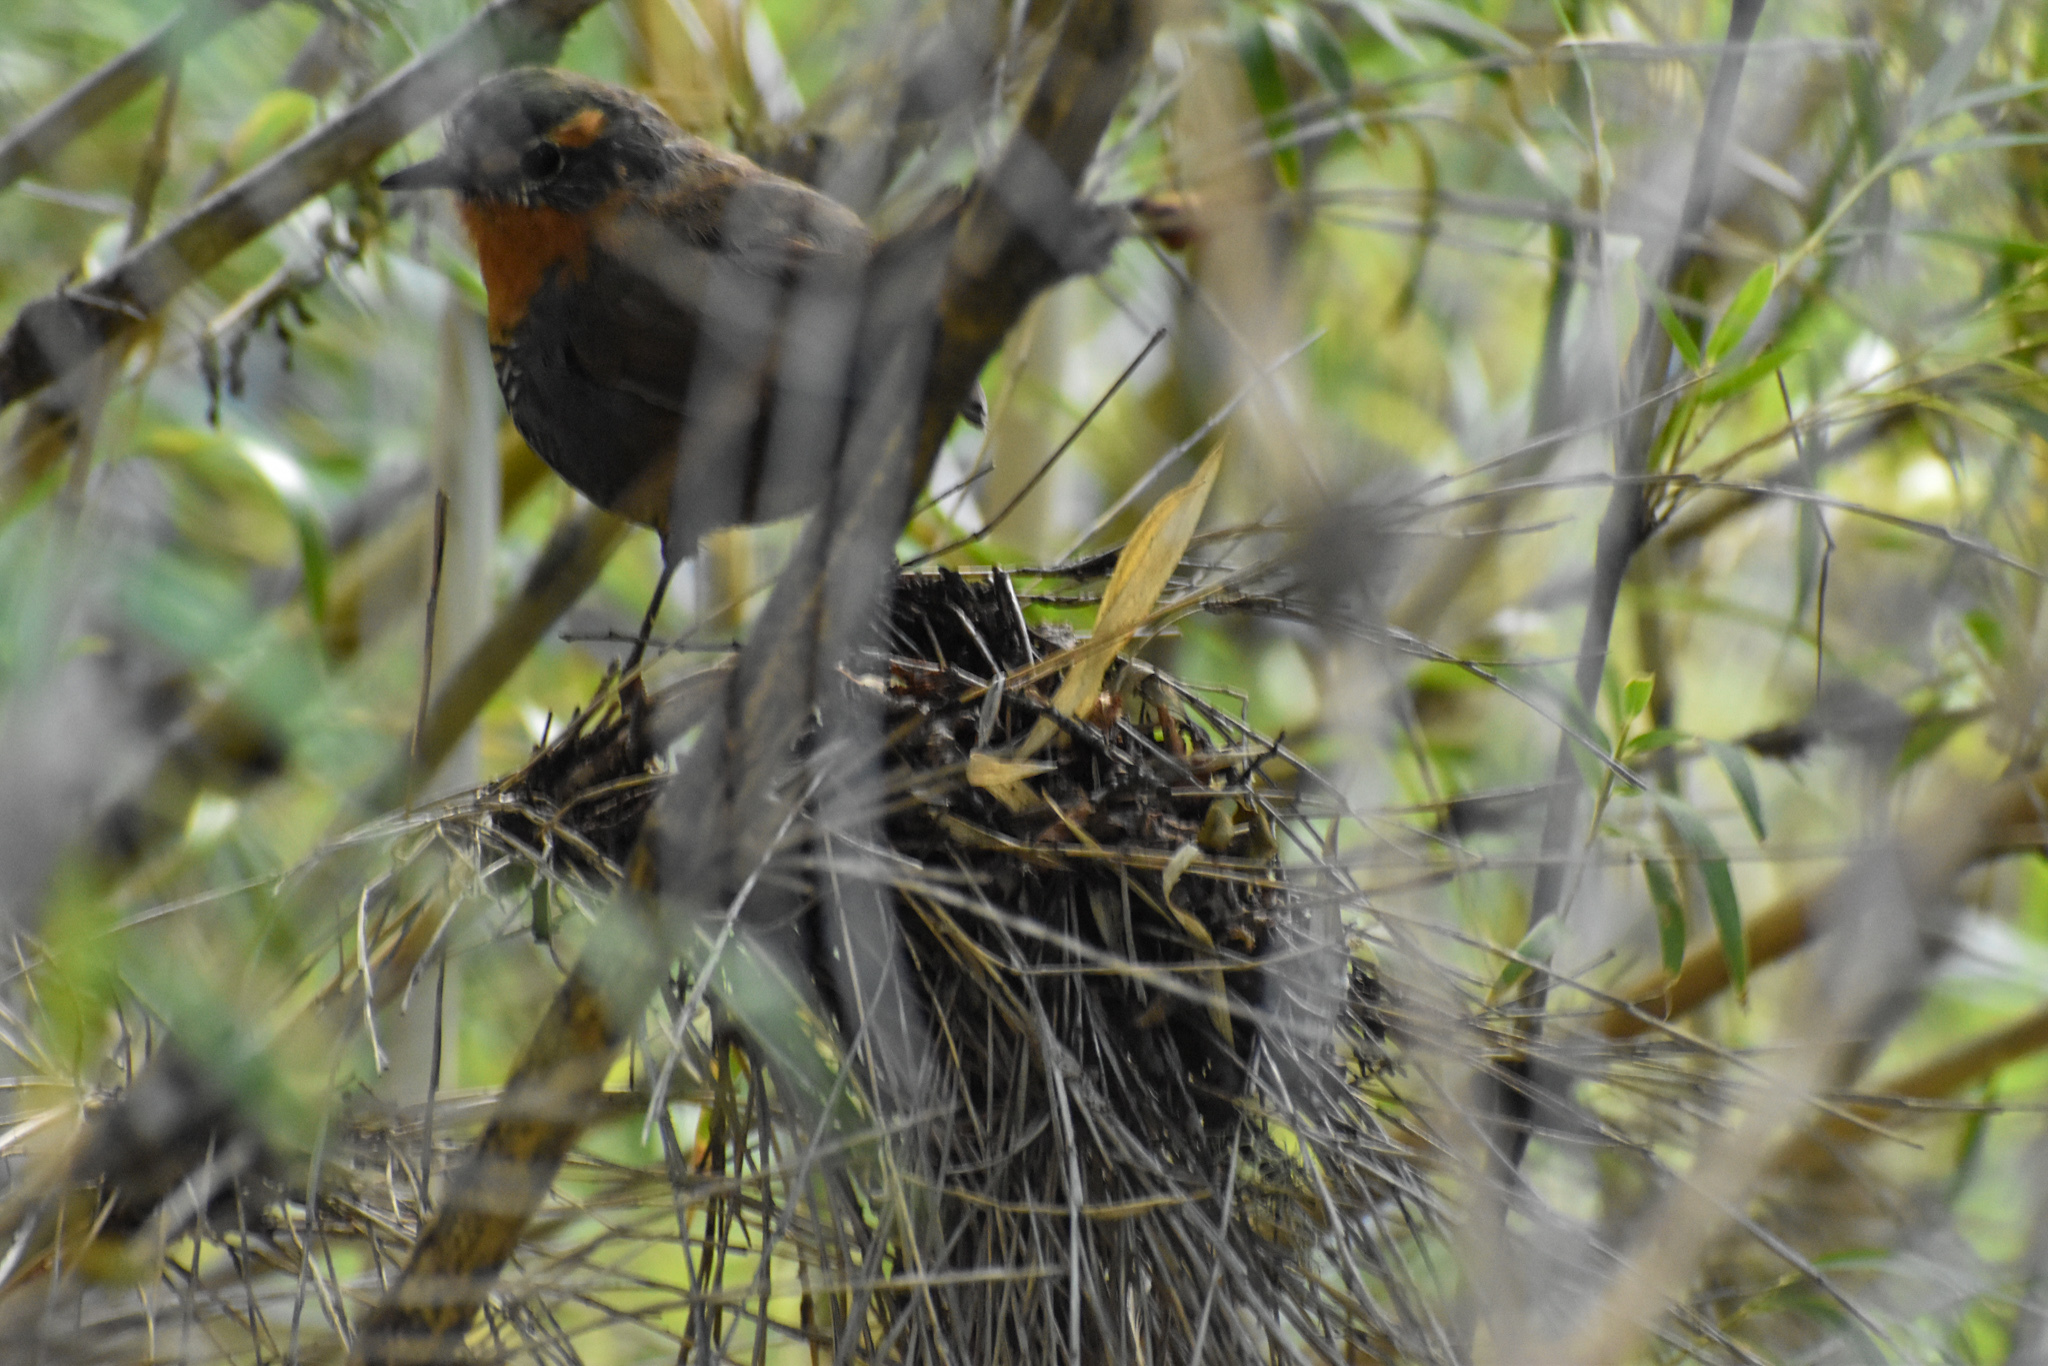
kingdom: Animalia
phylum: Chordata
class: Aves
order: Passeriformes
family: Rhinocryptidae
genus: Scelorchilus
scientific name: Scelorchilus rubecula
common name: Chucao tapaculo
